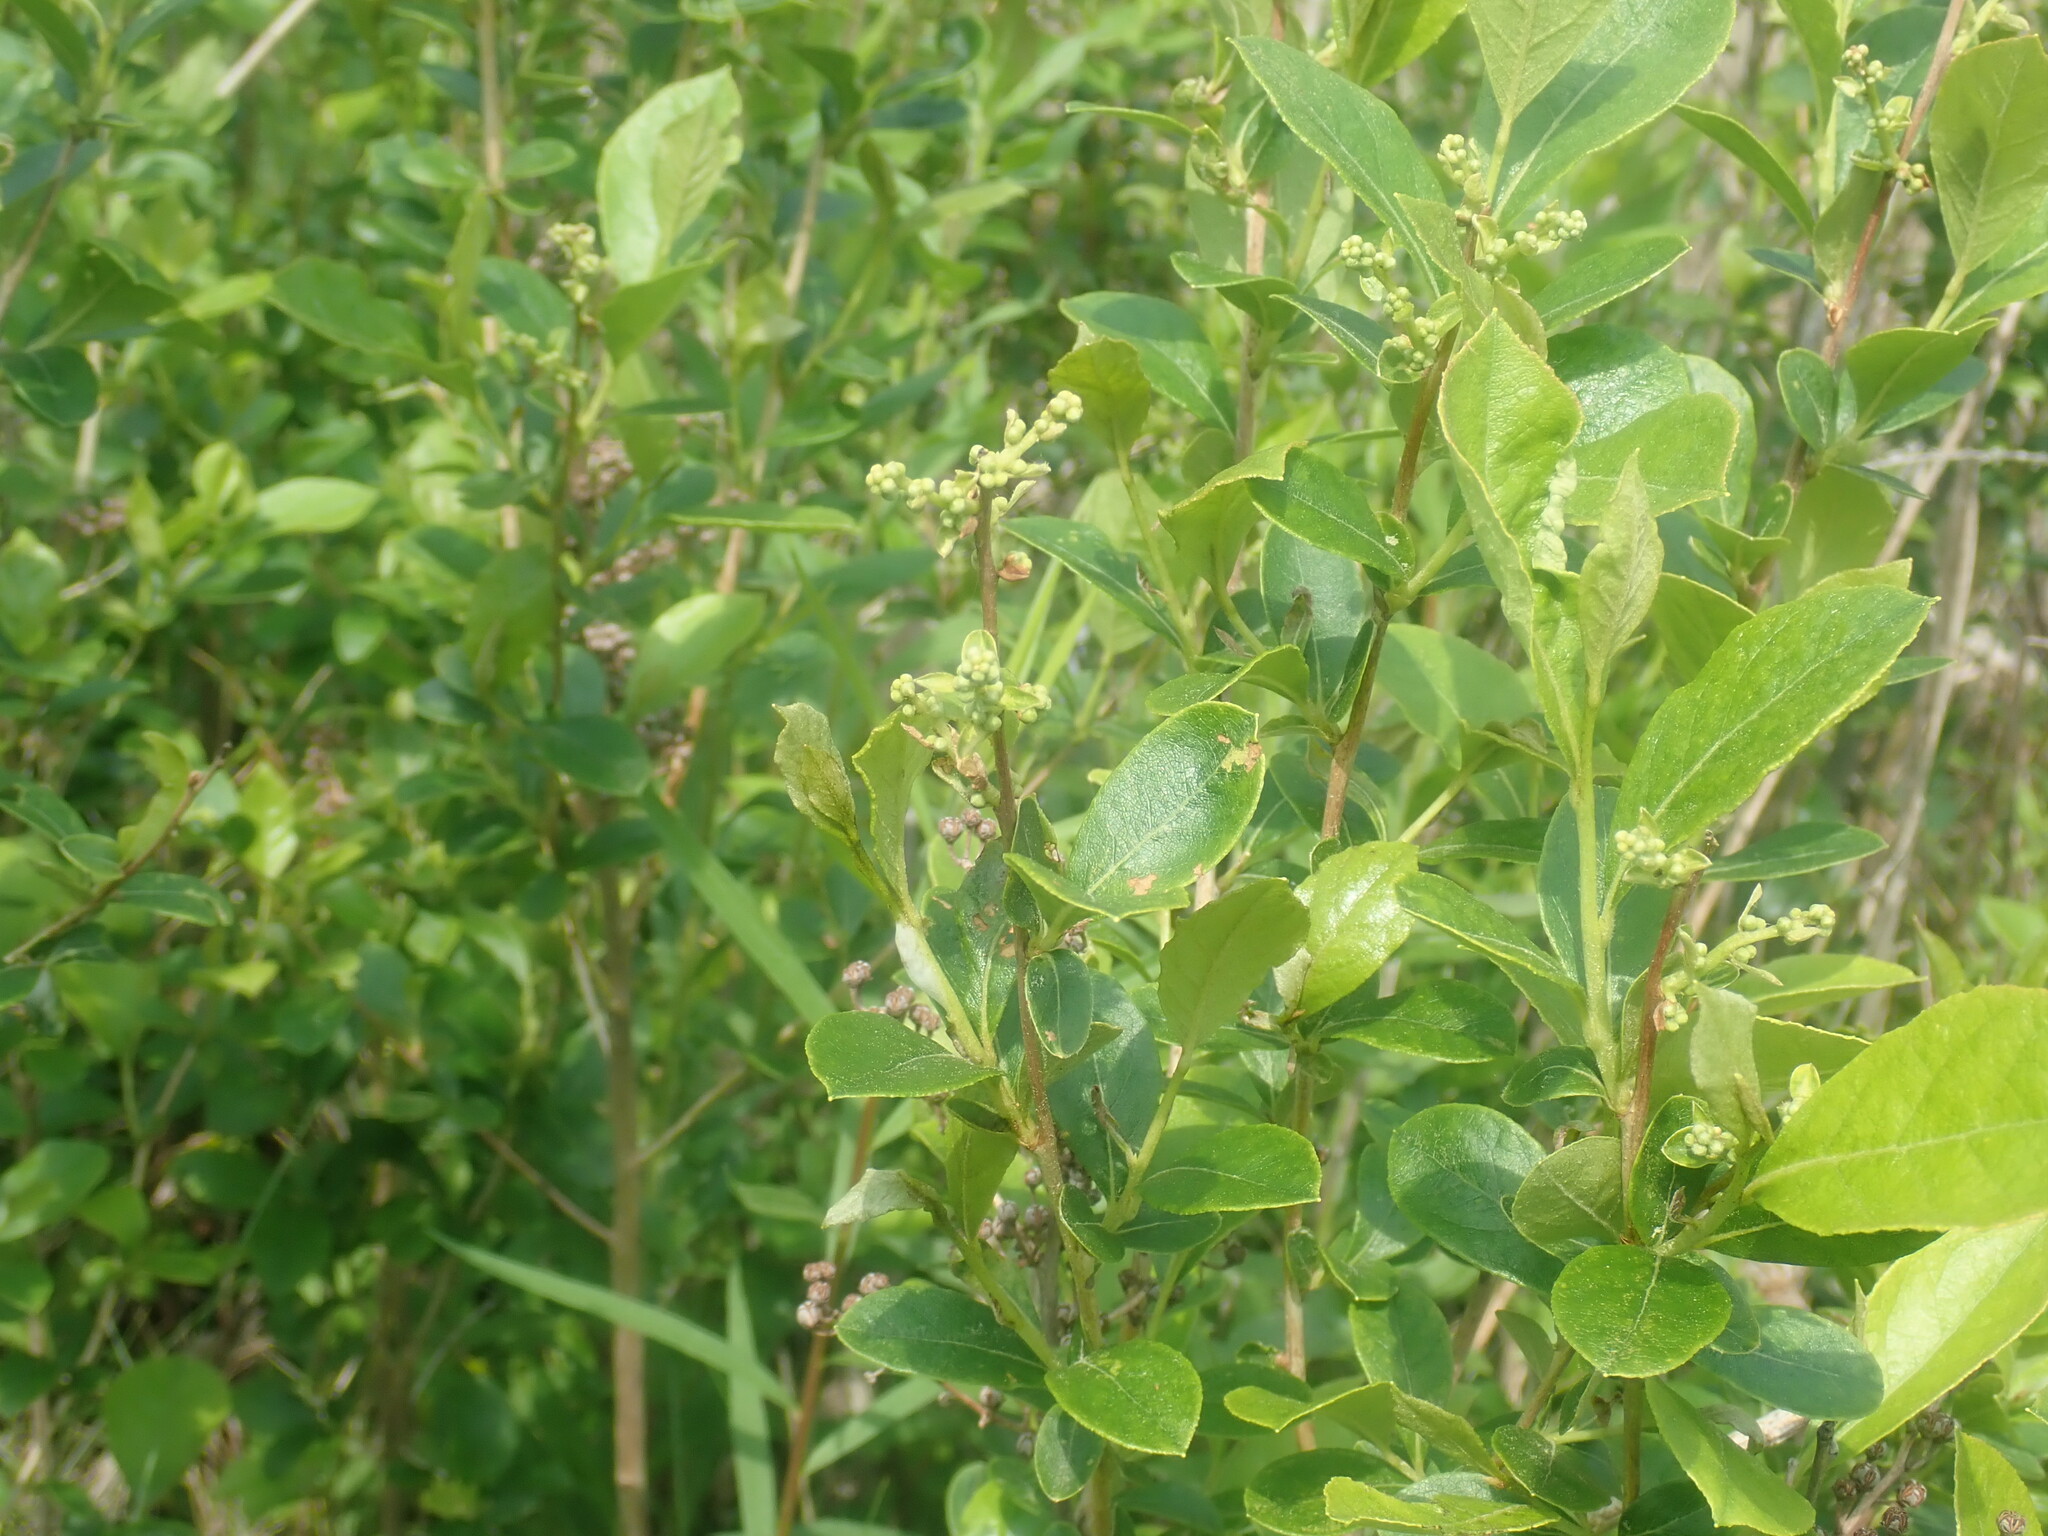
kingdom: Plantae
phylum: Tracheophyta
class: Magnoliopsida
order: Ericales
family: Ericaceae
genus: Lyonia
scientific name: Lyonia ligustrina
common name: Maleberry
